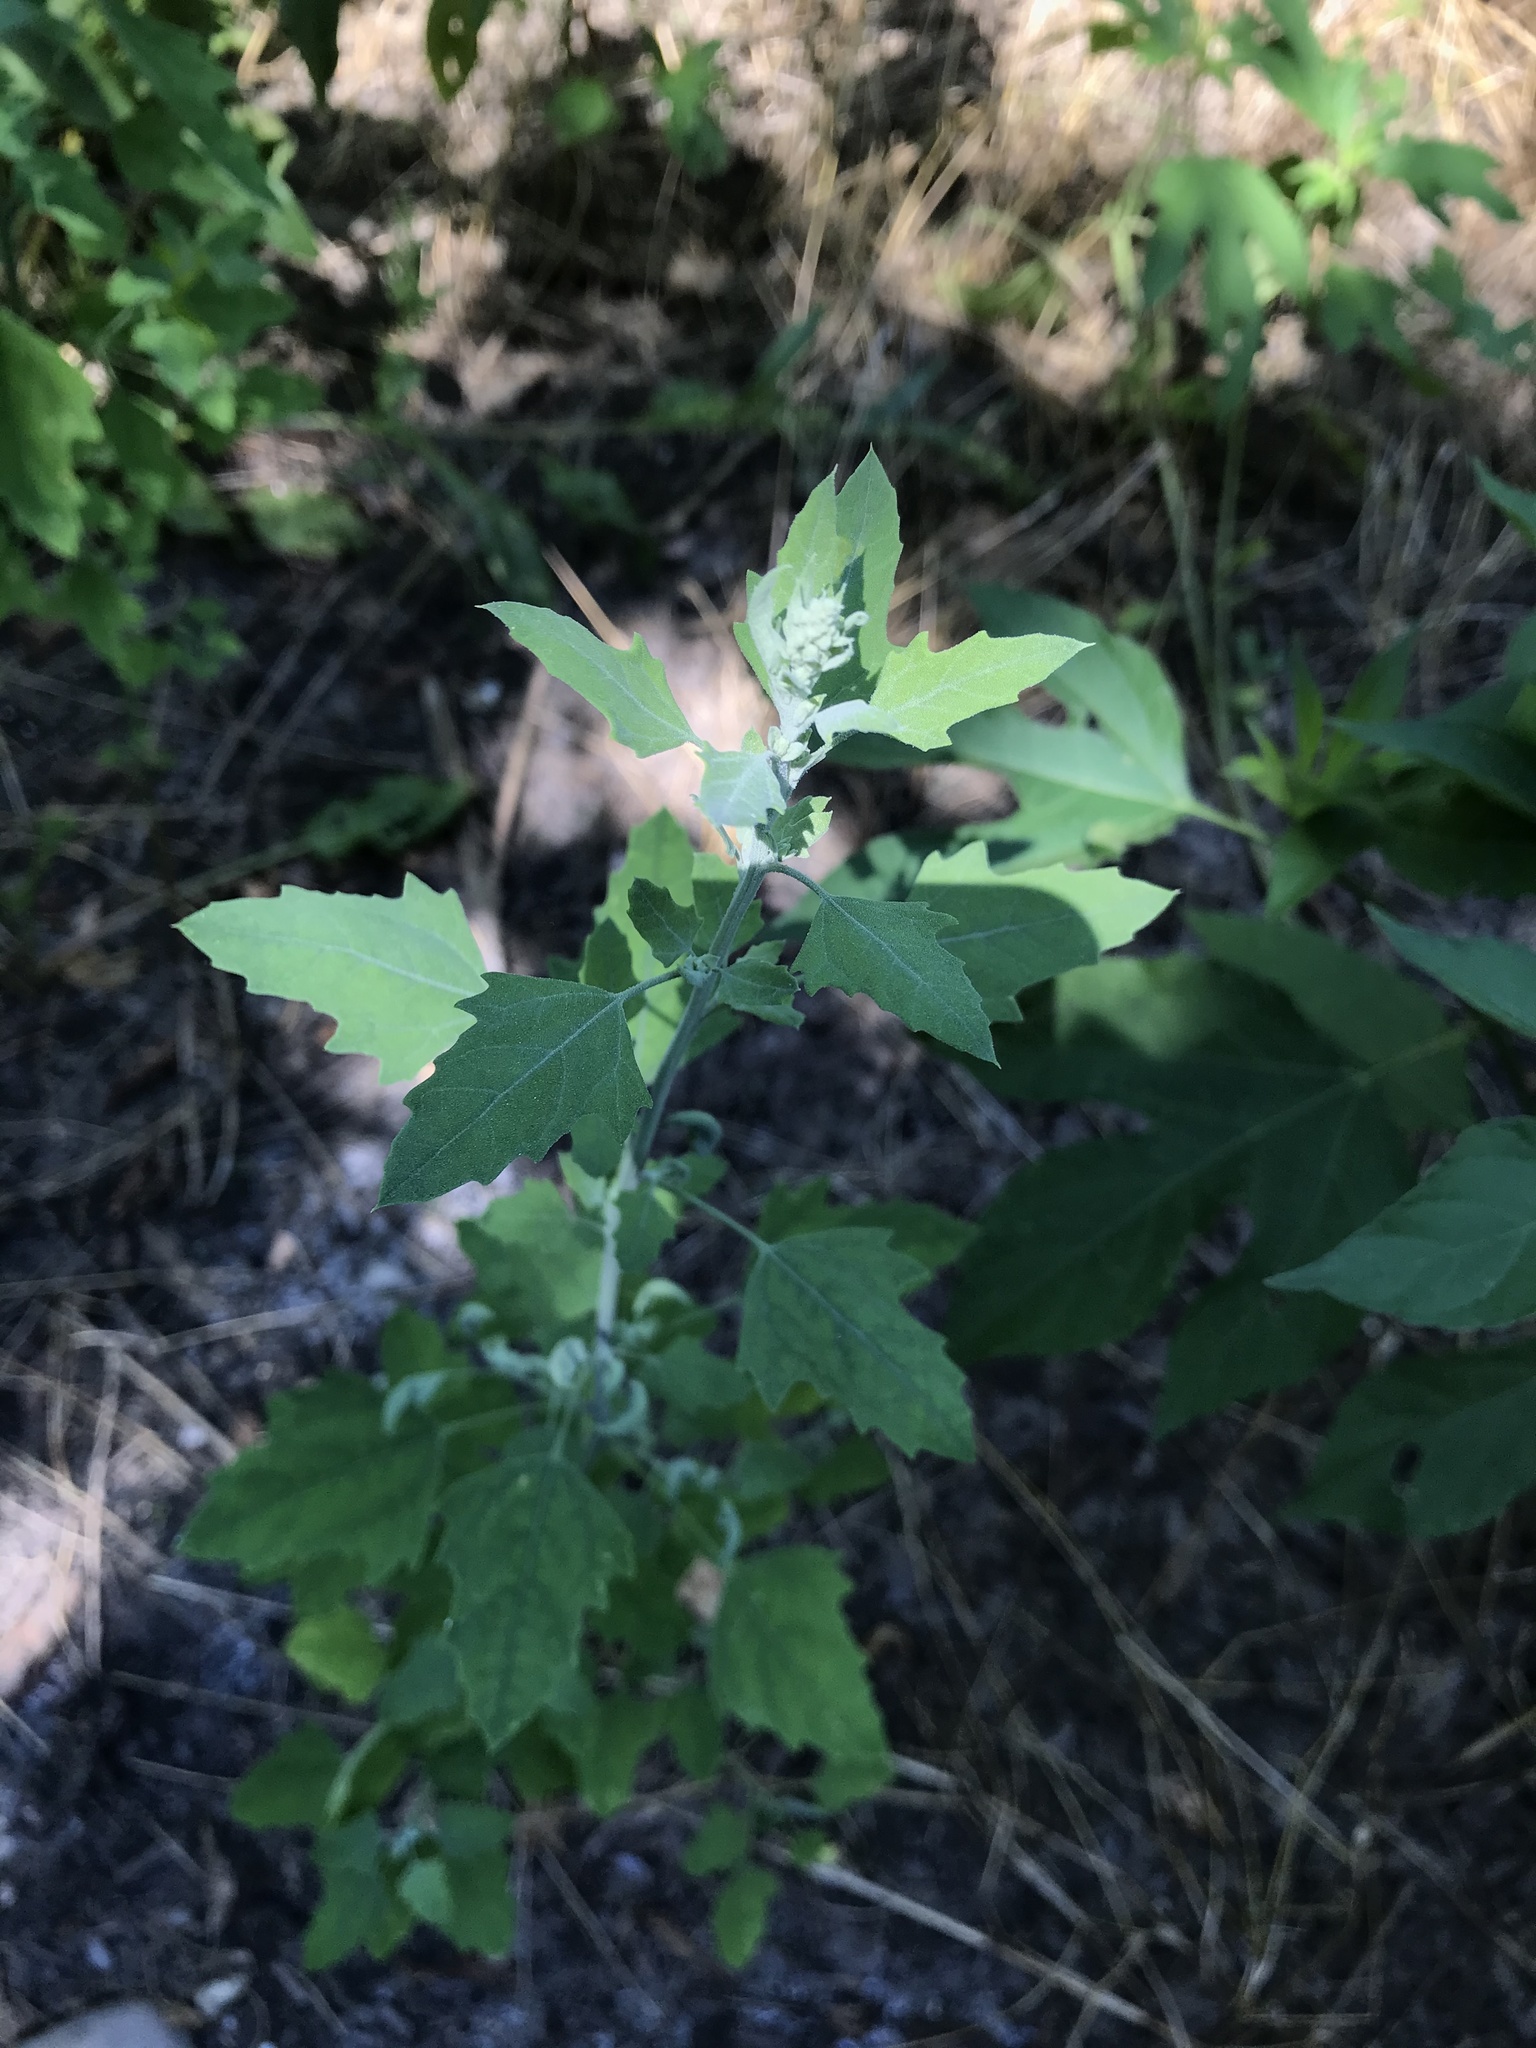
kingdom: Plantae
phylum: Tracheophyta
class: Magnoliopsida
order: Caryophyllales
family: Amaranthaceae
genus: Chenopodium
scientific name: Chenopodium album
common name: Fat-hen
